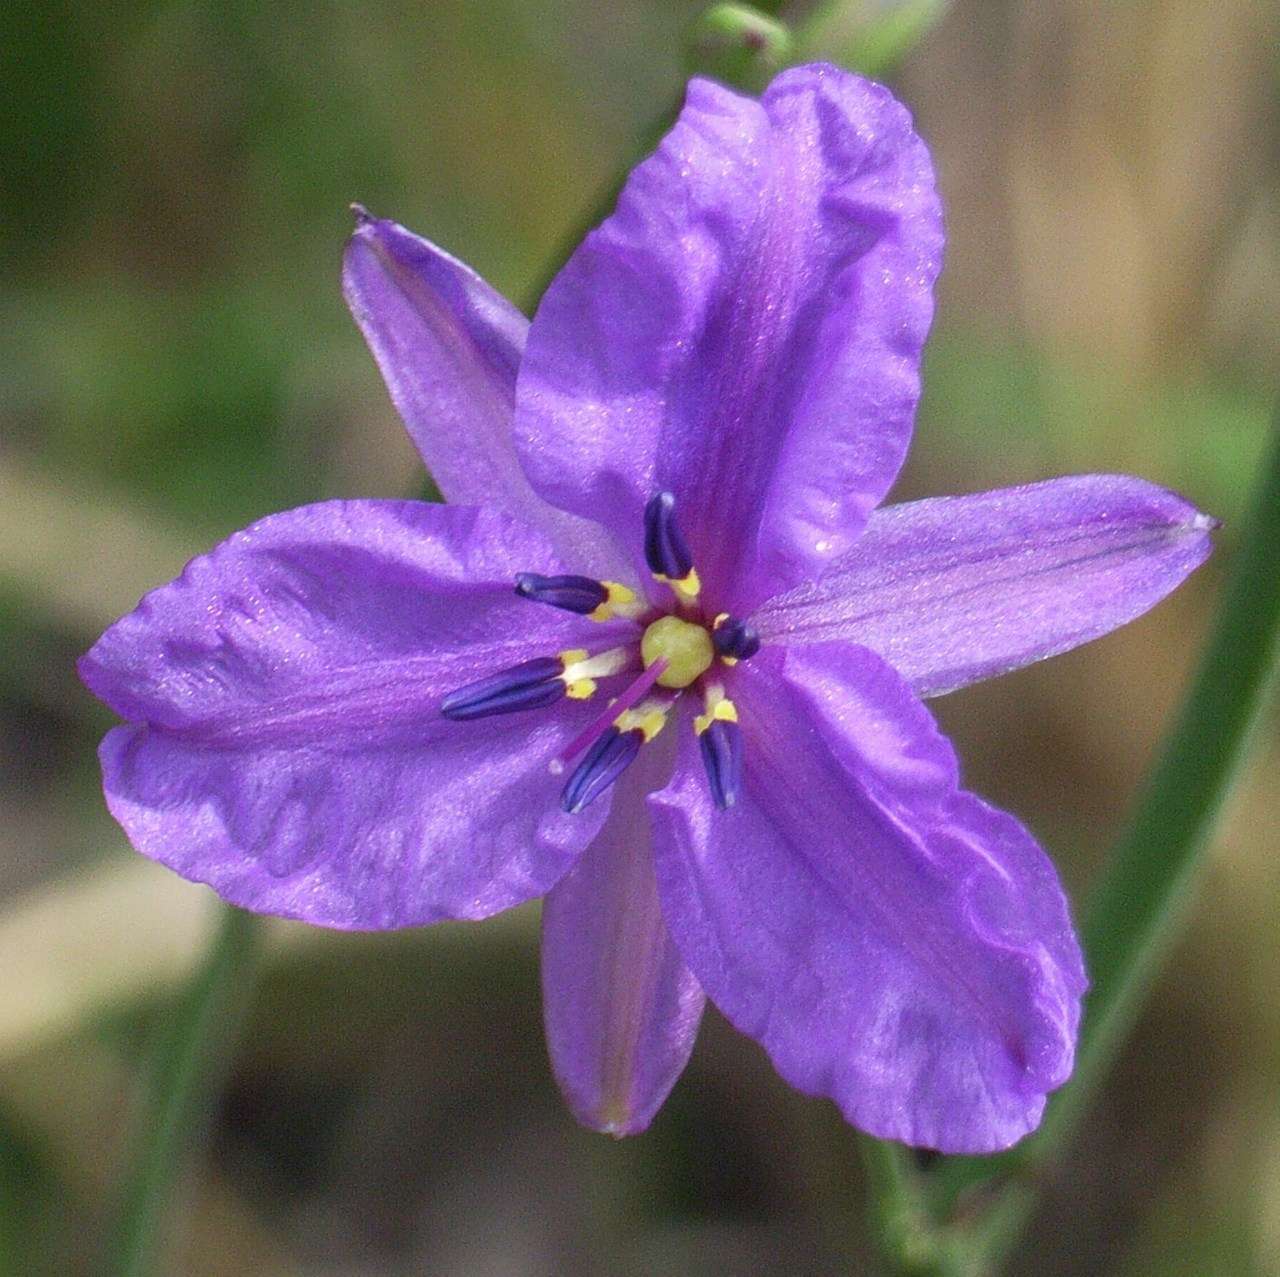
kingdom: Plantae
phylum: Tracheophyta
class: Liliopsida
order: Asparagales
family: Asparagaceae
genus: Arthropodium
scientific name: Arthropodium strictum
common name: Chocolate-lily
